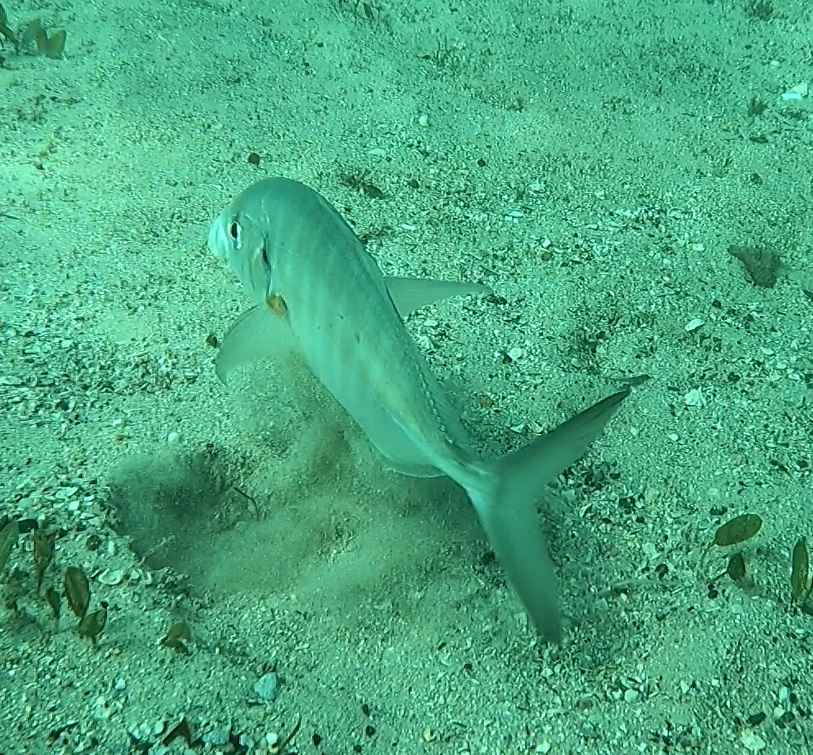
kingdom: Animalia
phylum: Chordata
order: Perciformes
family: Carangidae
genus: Pseudocaranx
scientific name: Pseudocaranx dentex
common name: White trevally
